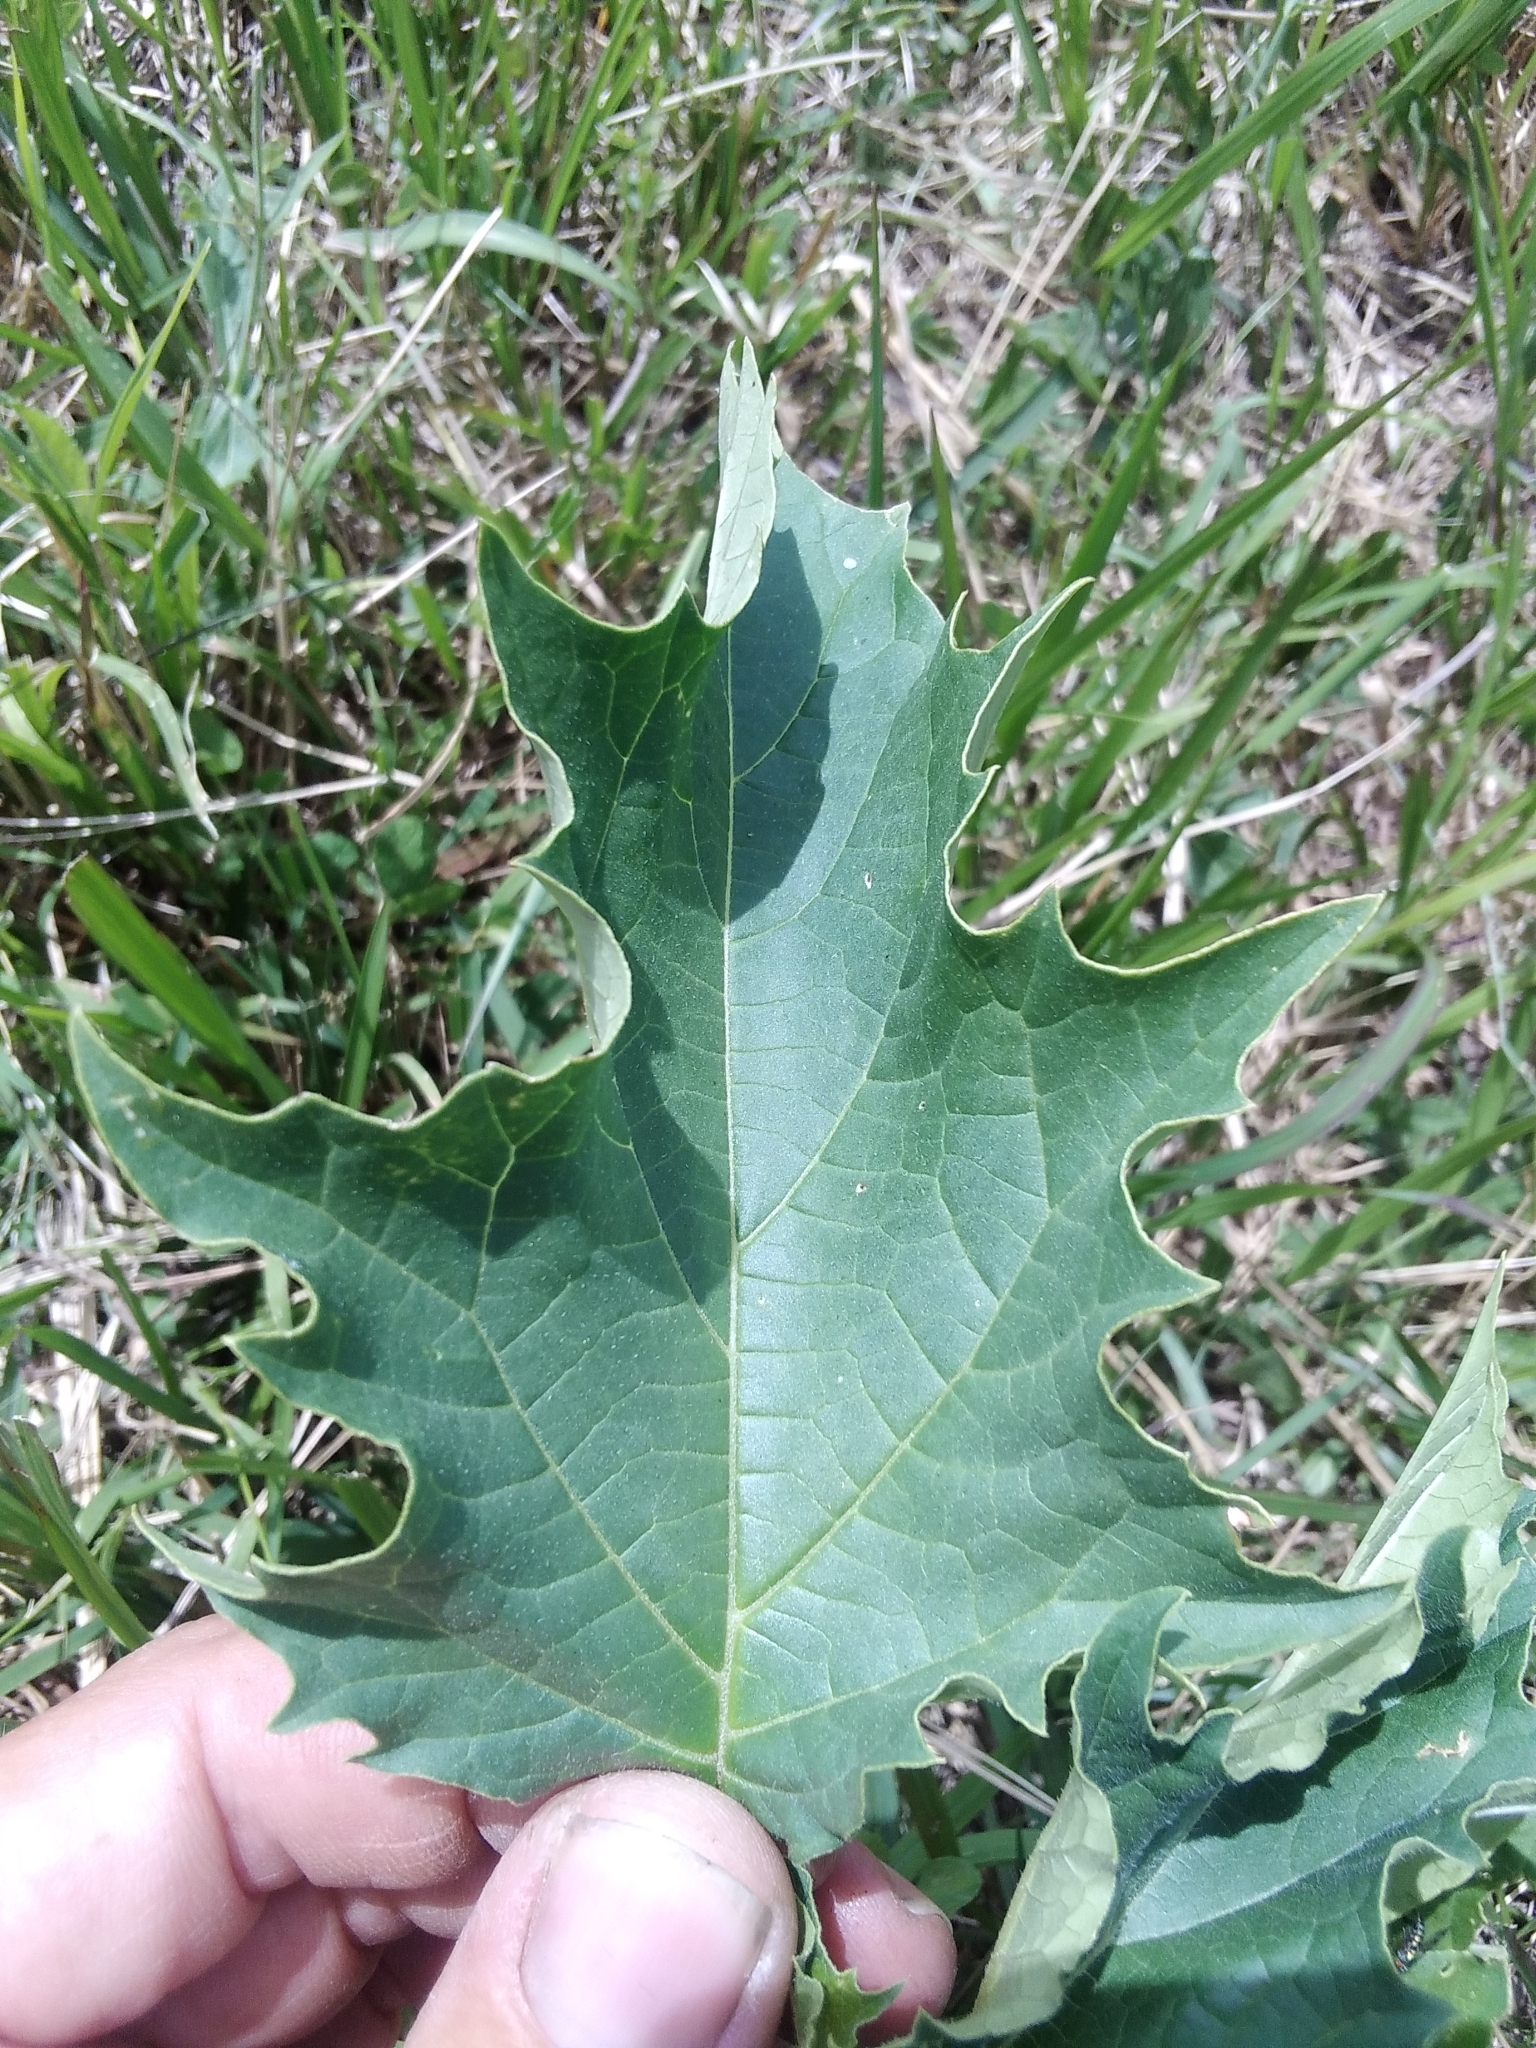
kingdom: Plantae
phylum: Tracheophyta
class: Magnoliopsida
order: Solanales
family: Solanaceae
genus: Datura
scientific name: Datura stramonium
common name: Thorn-apple
